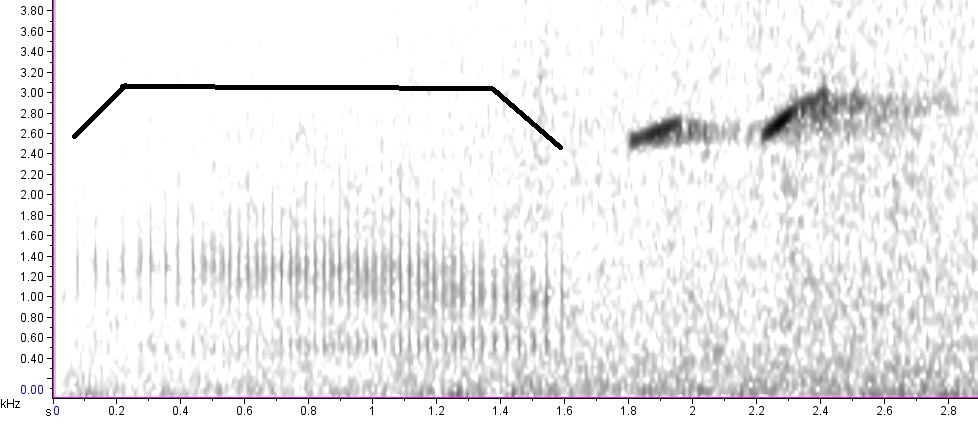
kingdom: Animalia
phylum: Chordata
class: Amphibia
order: Anura
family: Ranidae
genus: Lithobates
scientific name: Lithobates palustris
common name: Pickerel frog
